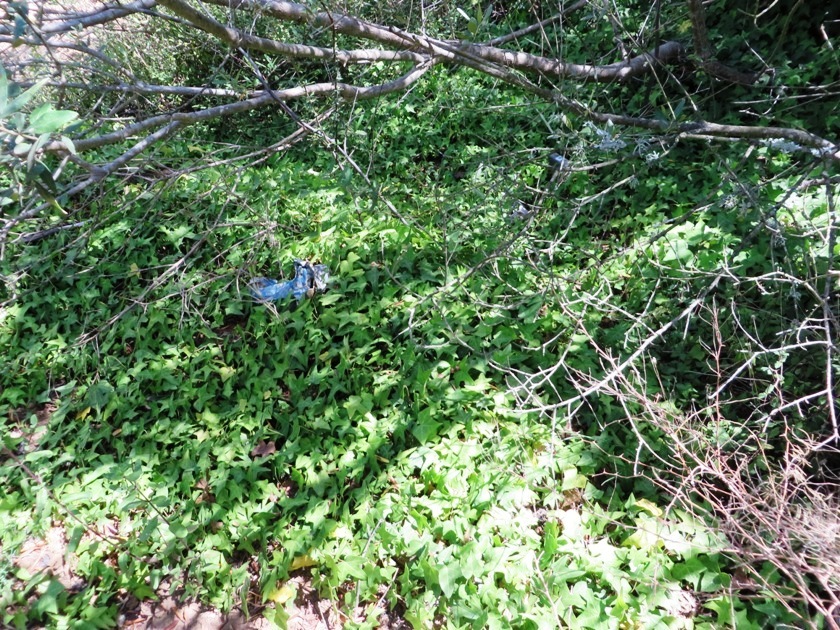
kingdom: Plantae
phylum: Tracheophyta
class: Magnoliopsida
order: Apiales
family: Araliaceae
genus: Hedera
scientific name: Hedera helix
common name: Ivy
